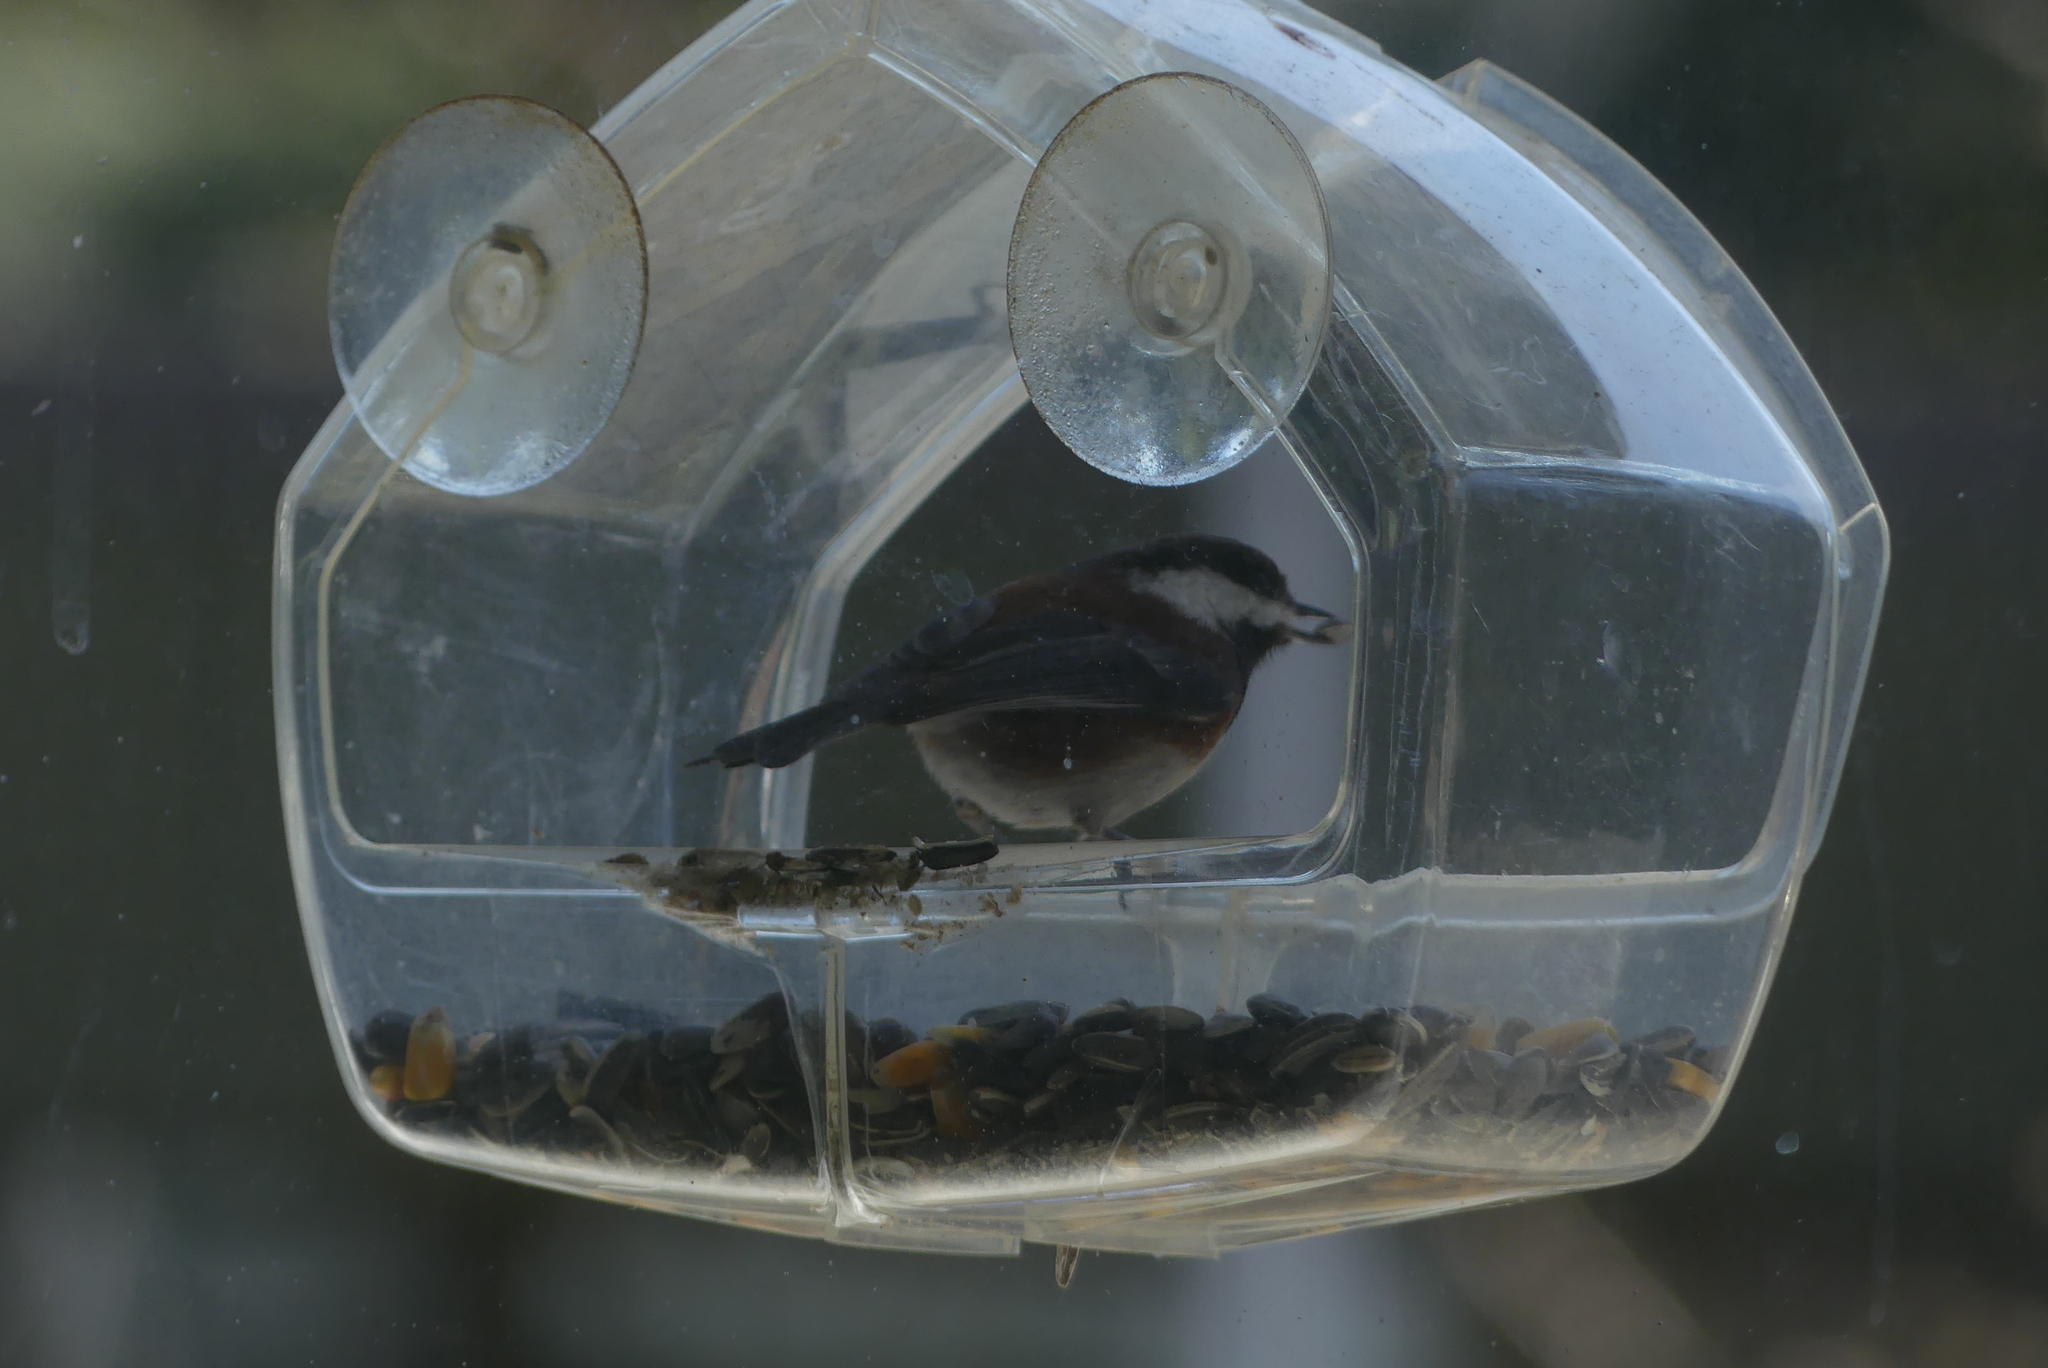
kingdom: Animalia
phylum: Chordata
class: Aves
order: Passeriformes
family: Paridae
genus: Poecile
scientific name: Poecile rufescens
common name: Chestnut-backed chickadee
